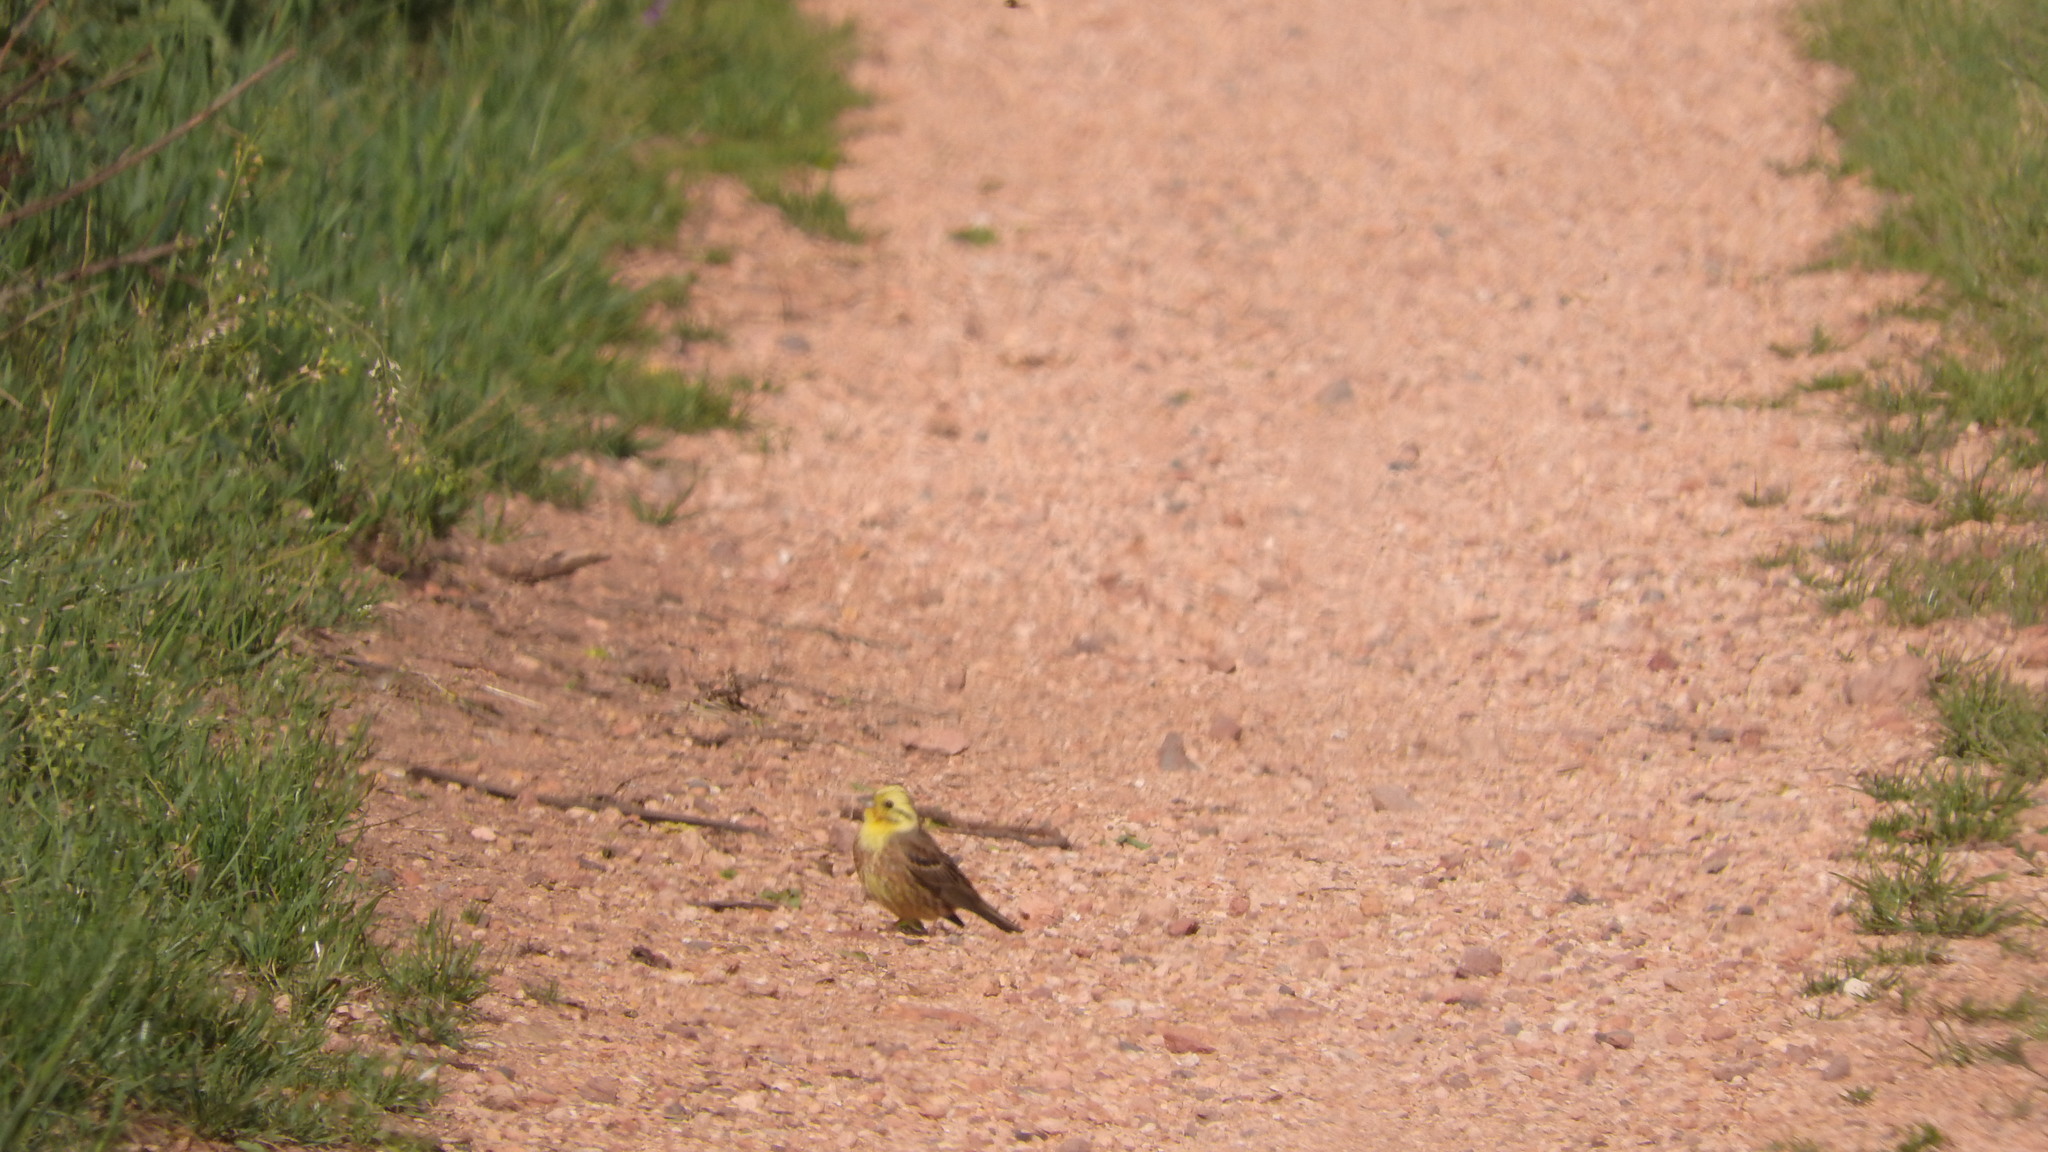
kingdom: Animalia
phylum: Chordata
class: Aves
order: Passeriformes
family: Emberizidae
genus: Emberiza
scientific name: Emberiza citrinella
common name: Yellowhammer
